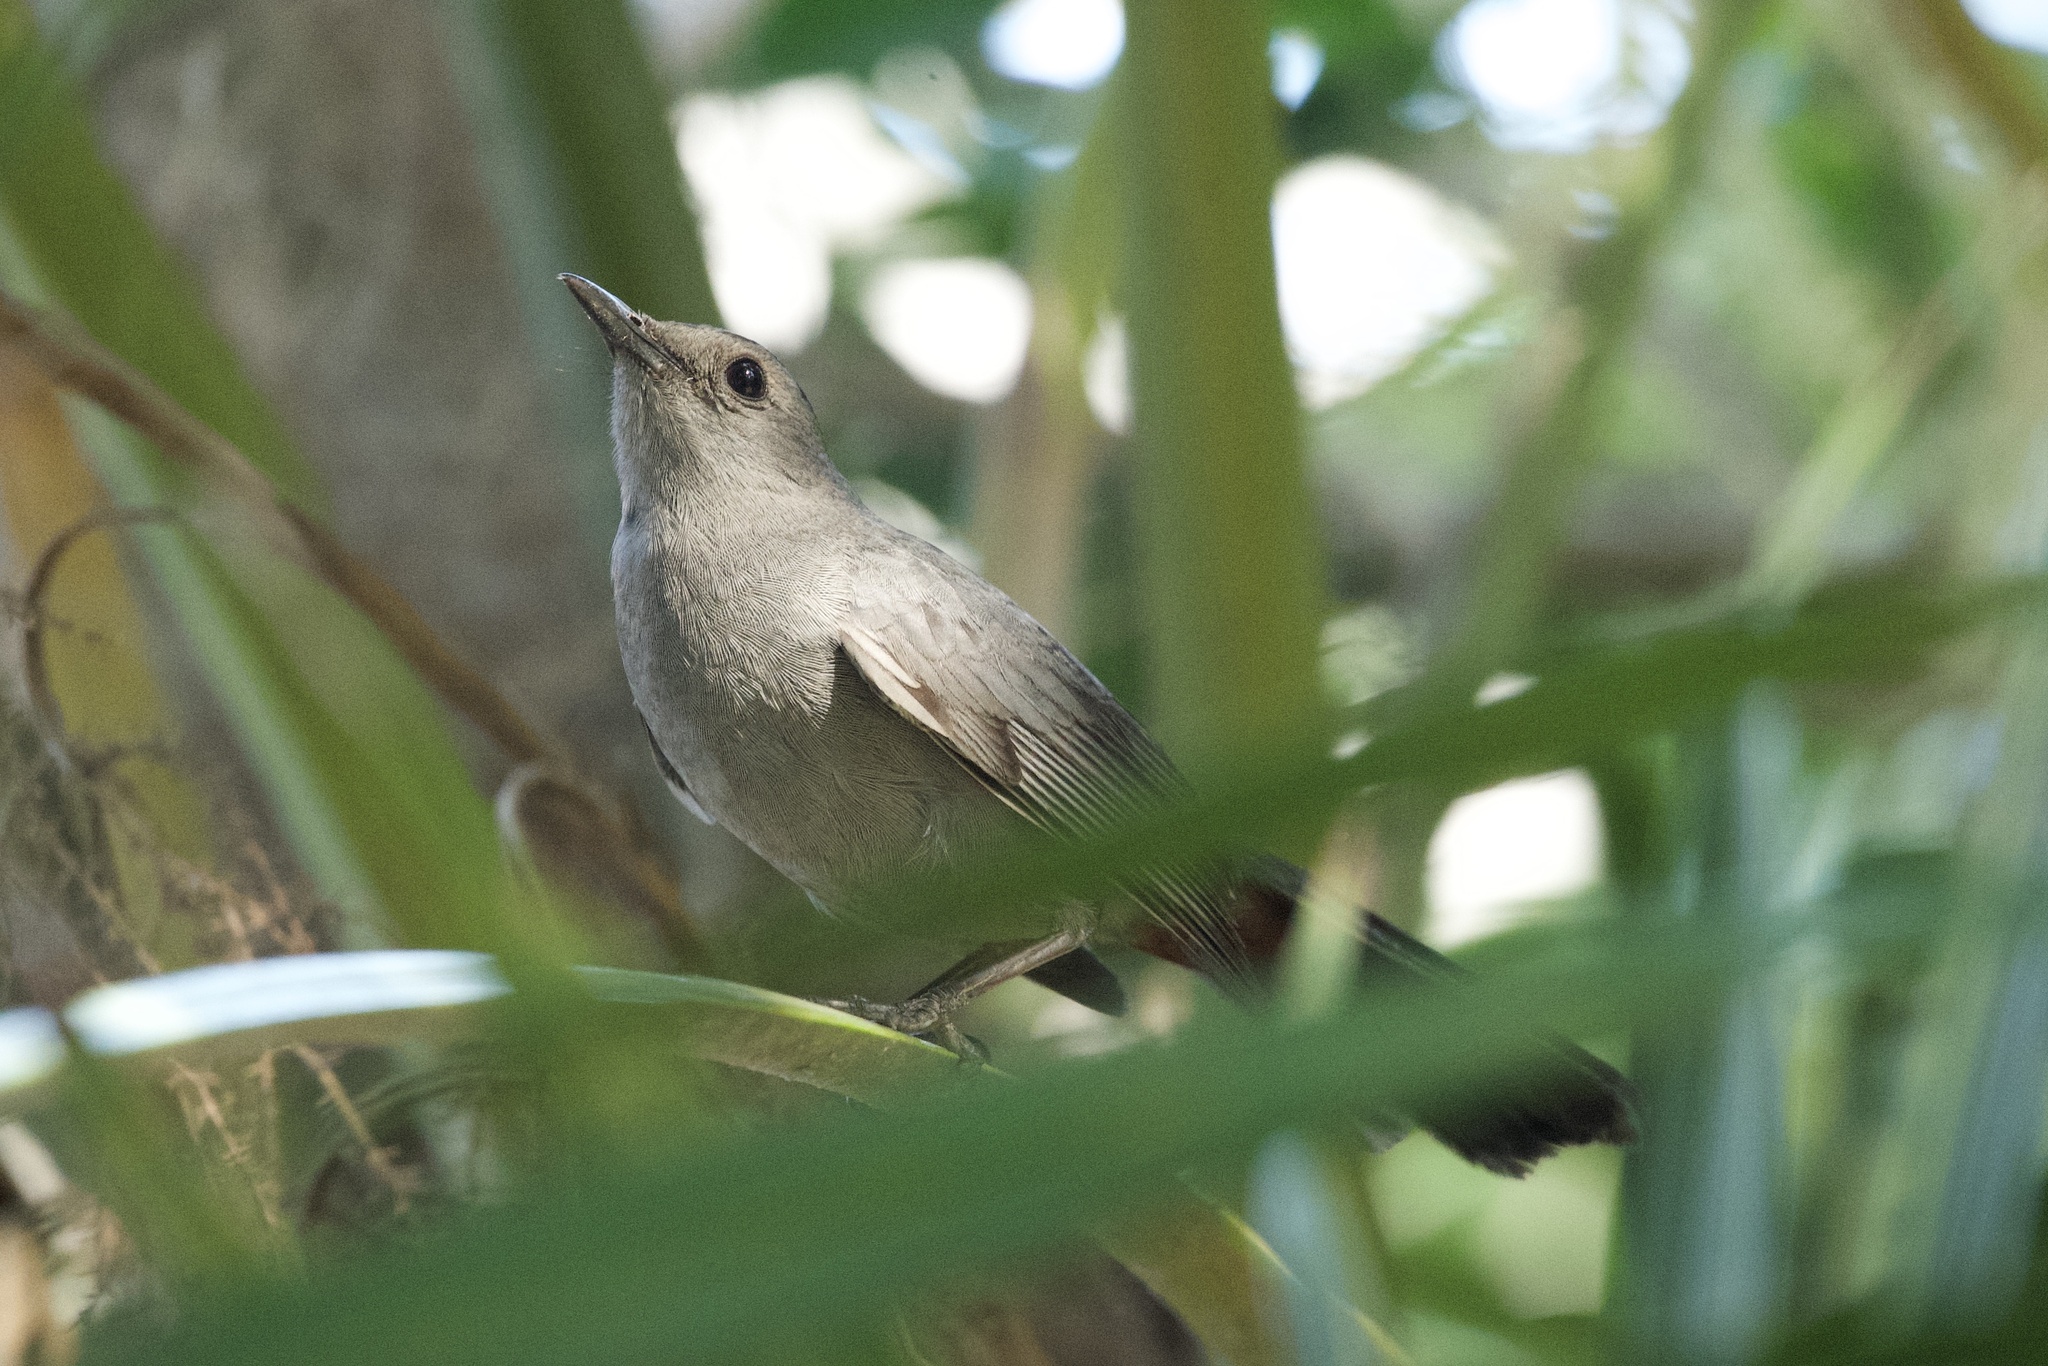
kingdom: Animalia
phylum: Chordata
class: Aves
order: Passeriformes
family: Mimidae
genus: Dumetella
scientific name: Dumetella carolinensis
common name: Gray catbird
